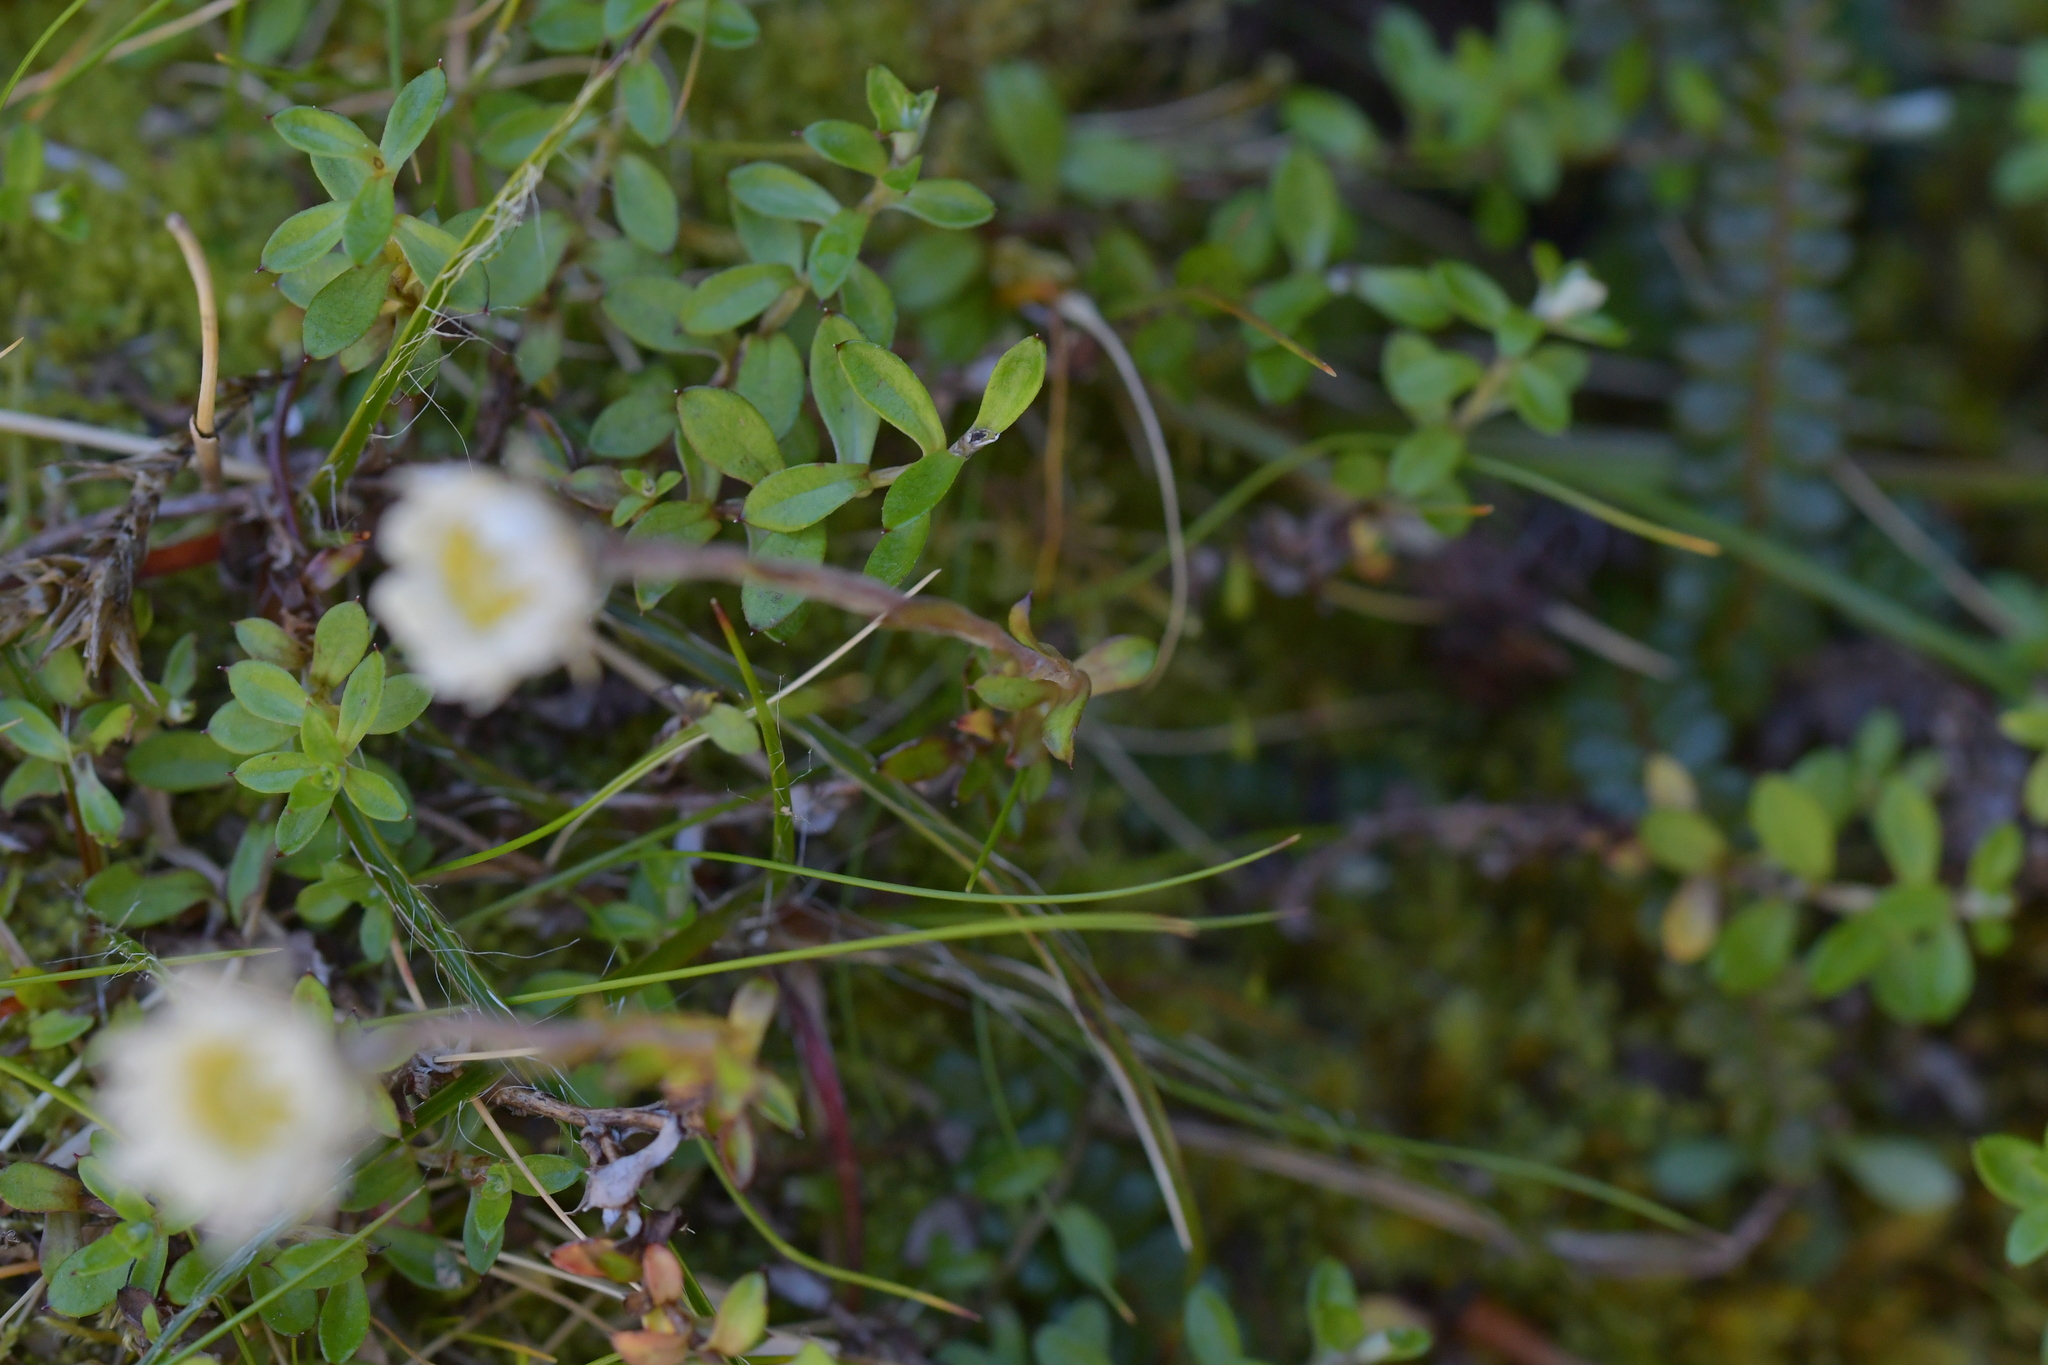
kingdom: Plantae
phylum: Tracheophyta
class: Magnoliopsida
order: Asterales
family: Asteraceae
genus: Anaphalioides
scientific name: Anaphalioides bellidioides
